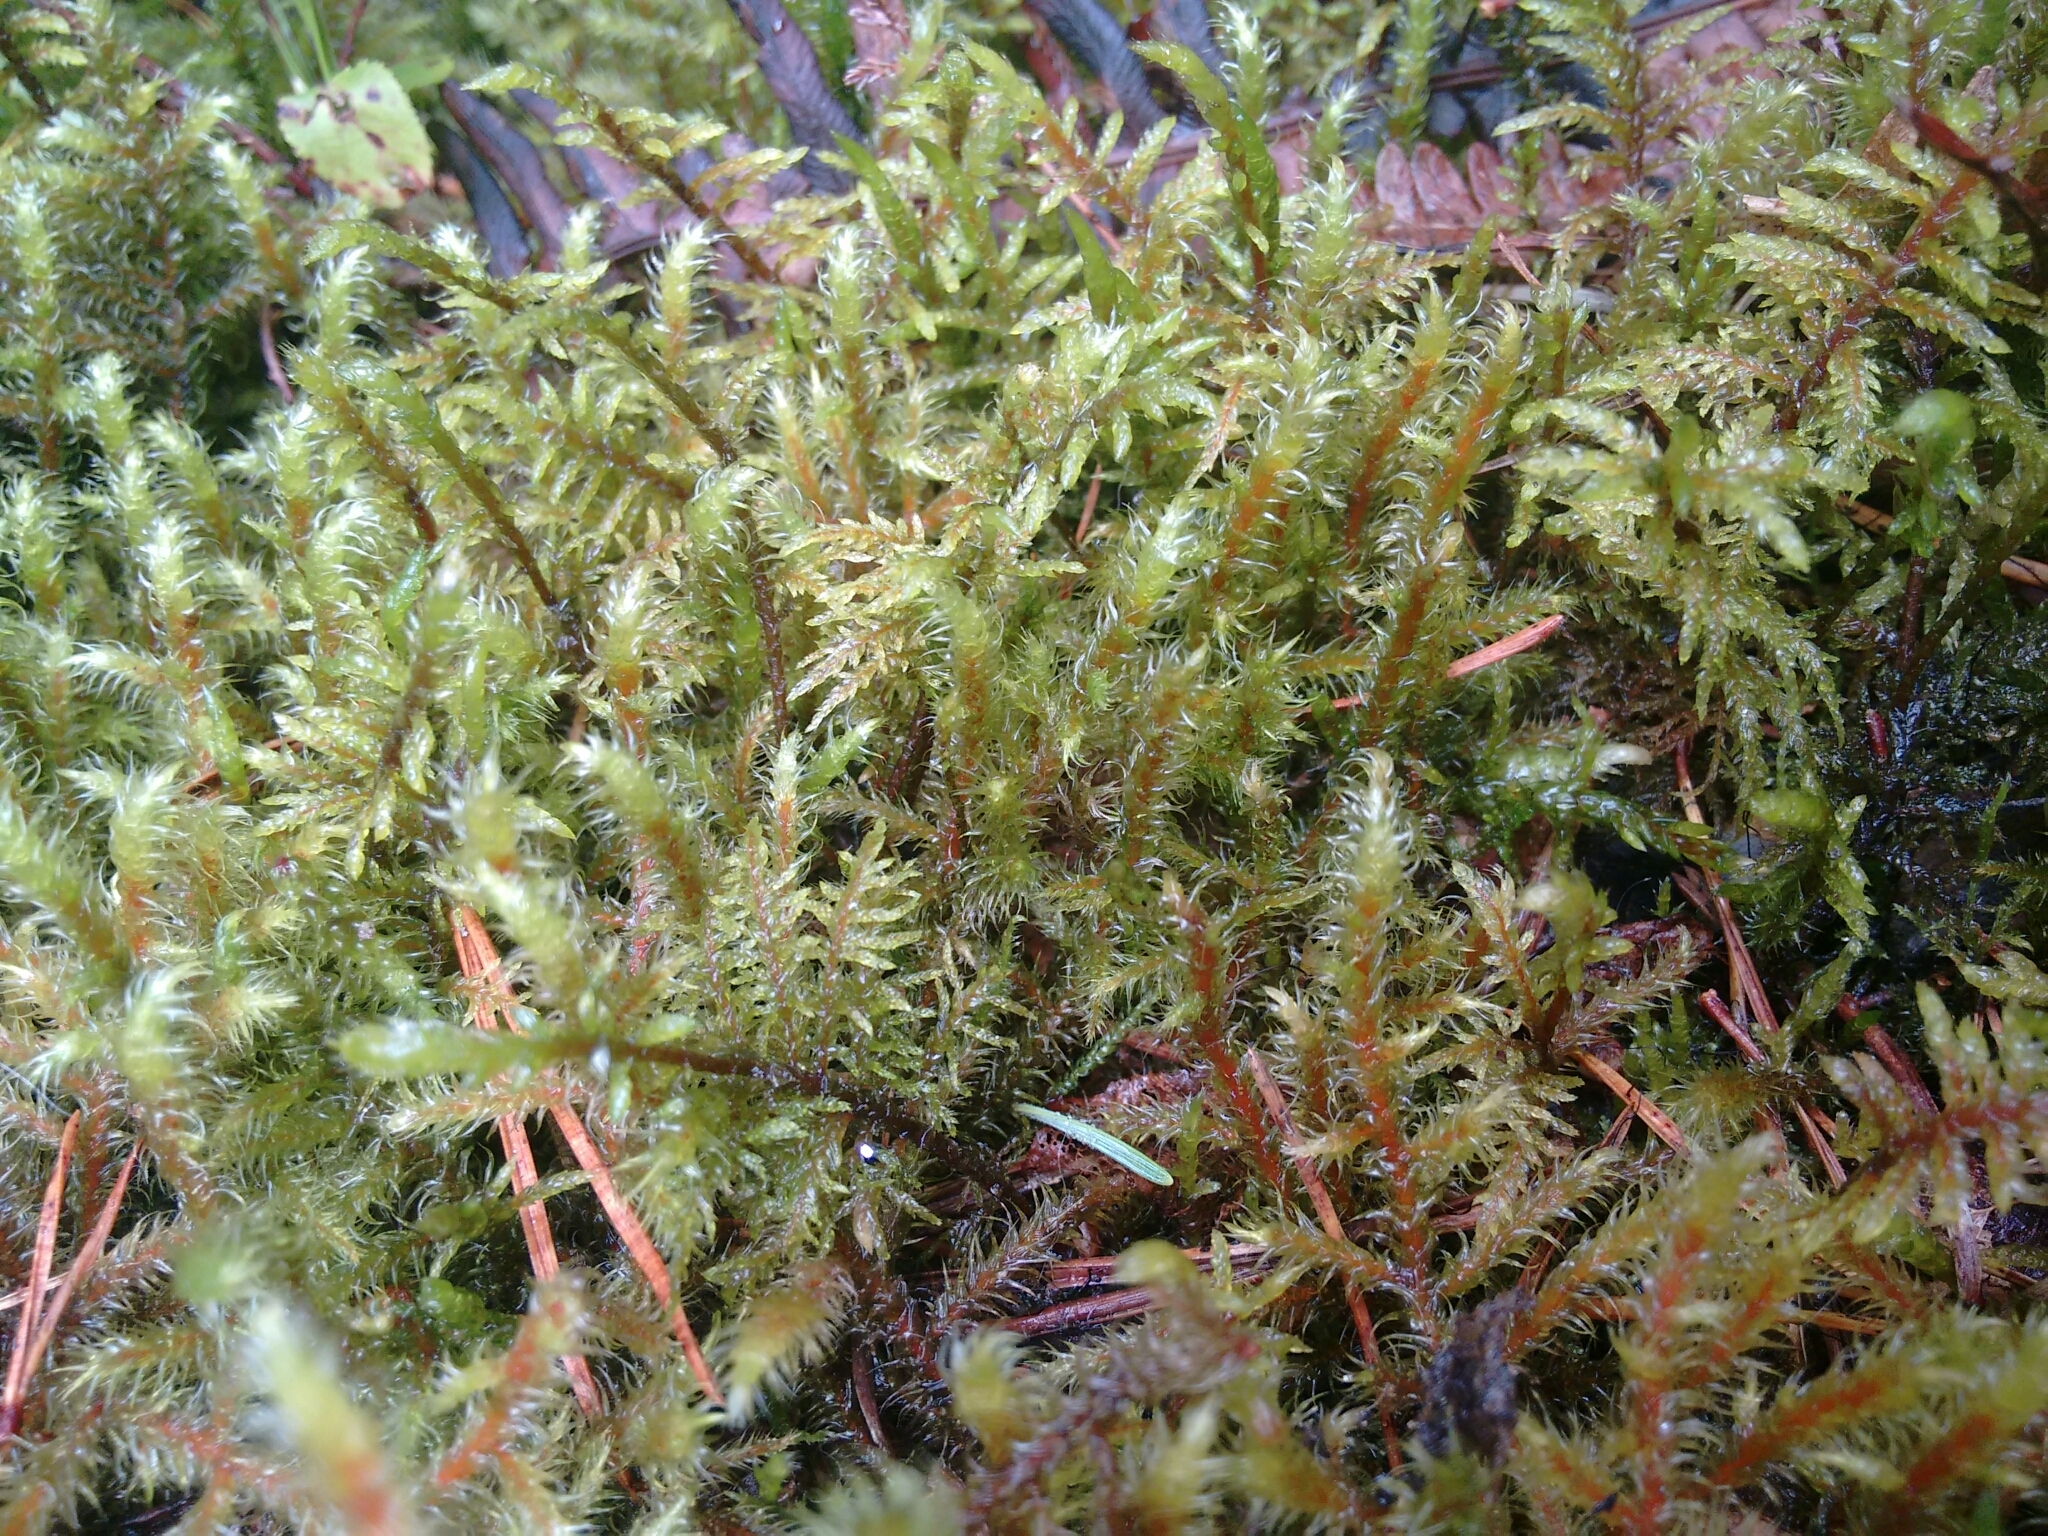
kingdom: Plantae
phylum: Bryophyta
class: Bryopsida
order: Hypnales
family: Hylocomiaceae
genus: Pleurozium
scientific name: Pleurozium schreberi
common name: Red-stemmed feather moss
